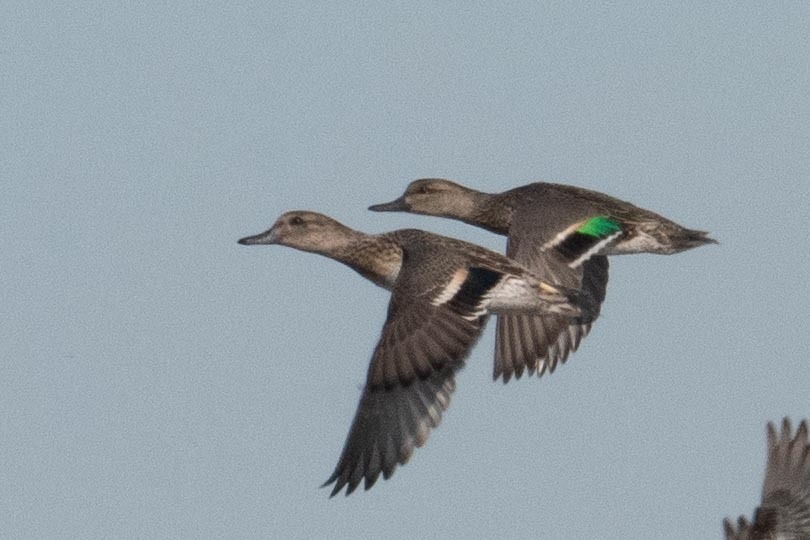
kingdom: Animalia
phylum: Chordata
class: Aves
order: Anseriformes
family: Anatidae
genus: Anas
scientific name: Anas crecca
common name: Eurasian teal
